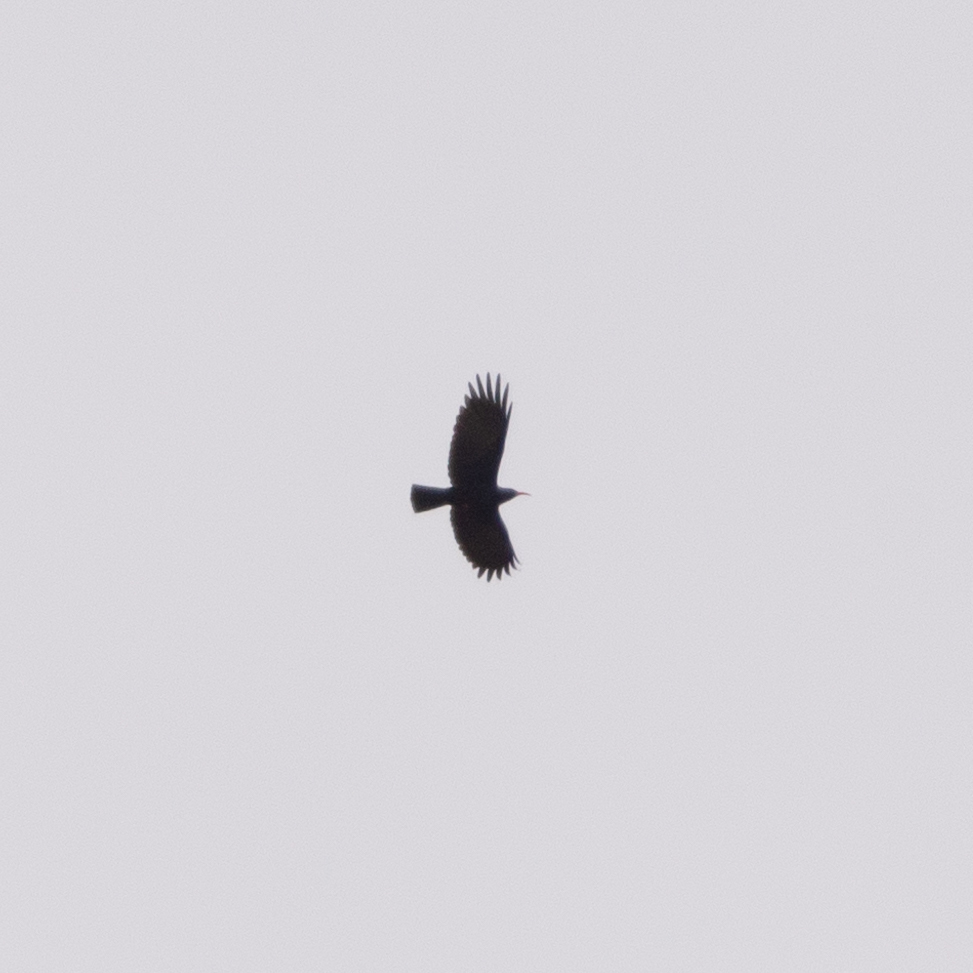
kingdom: Animalia
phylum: Chordata
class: Aves
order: Passeriformes
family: Corvidae
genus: Pyrrhocorax
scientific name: Pyrrhocorax pyrrhocorax
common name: Red-billed chough
